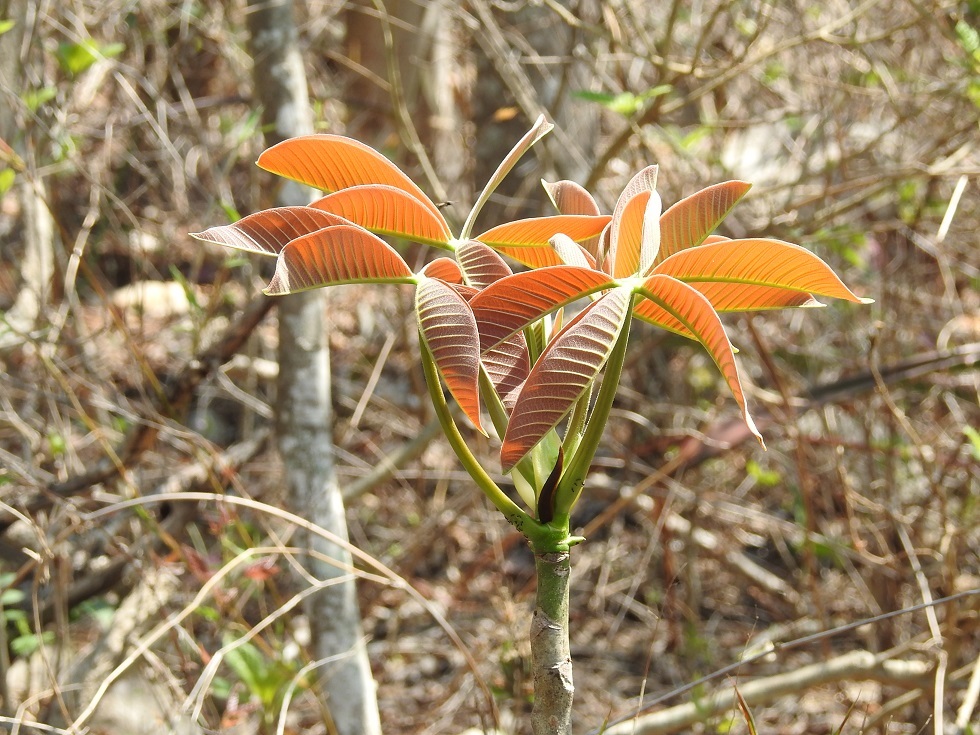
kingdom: Plantae
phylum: Tracheophyta
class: Magnoliopsida
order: Malvales
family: Malvaceae
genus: Pseudobombax
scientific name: Pseudobombax ellipticum
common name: Shaving-brush-tree
